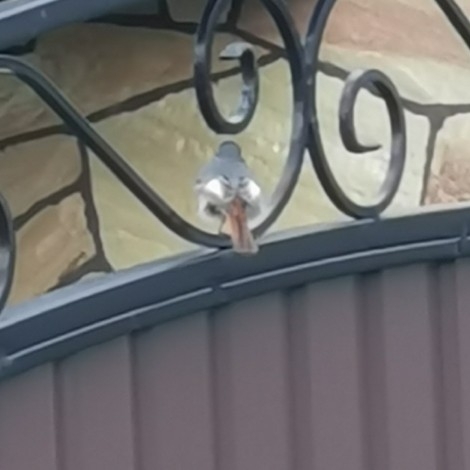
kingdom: Animalia
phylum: Chordata
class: Aves
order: Passeriformes
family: Muscicapidae
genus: Phoenicurus
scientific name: Phoenicurus ochruros
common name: Black redstart
